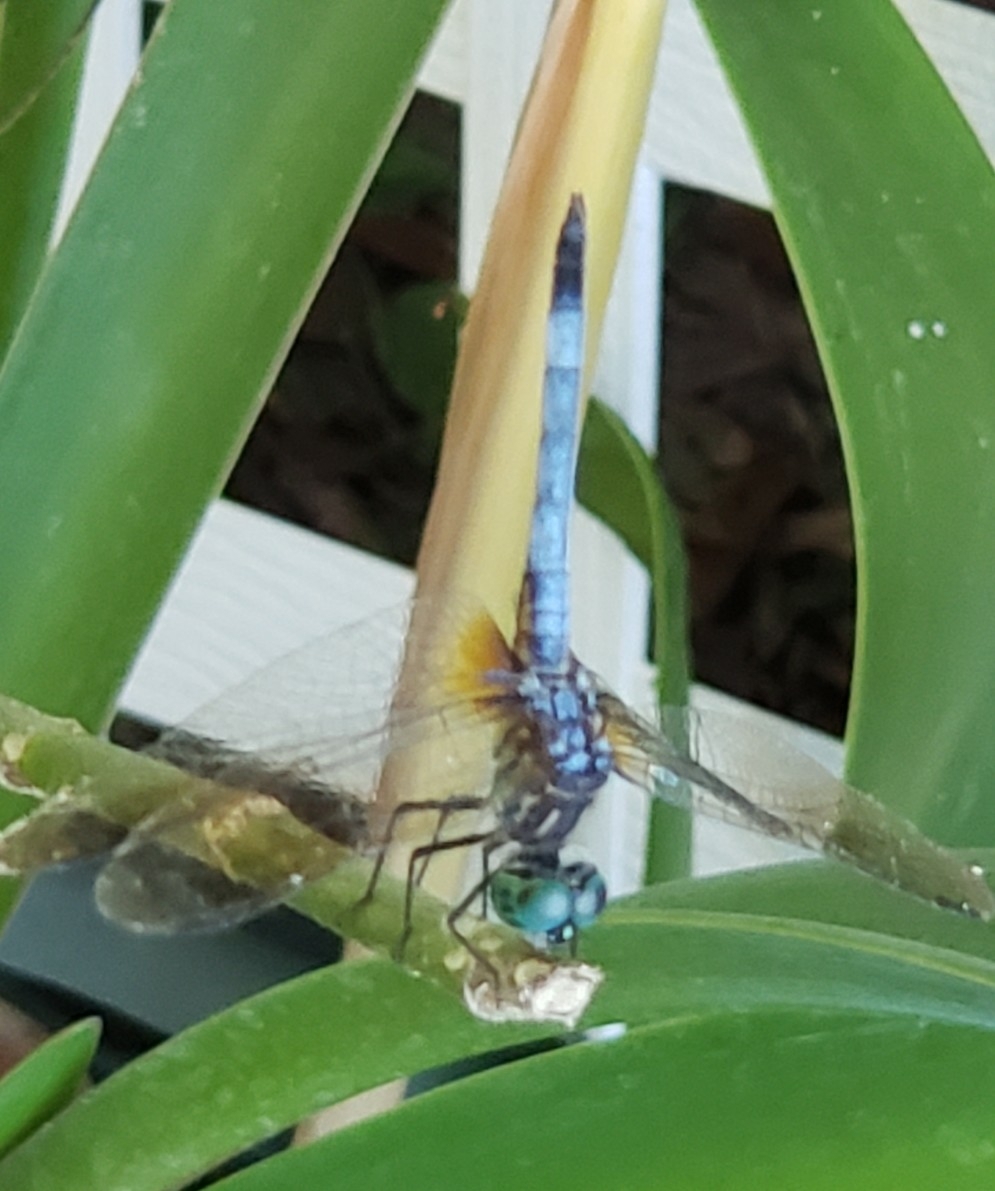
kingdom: Animalia
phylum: Arthropoda
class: Insecta
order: Odonata
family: Libellulidae
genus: Pachydiplax
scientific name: Pachydiplax longipennis
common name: Blue dasher
